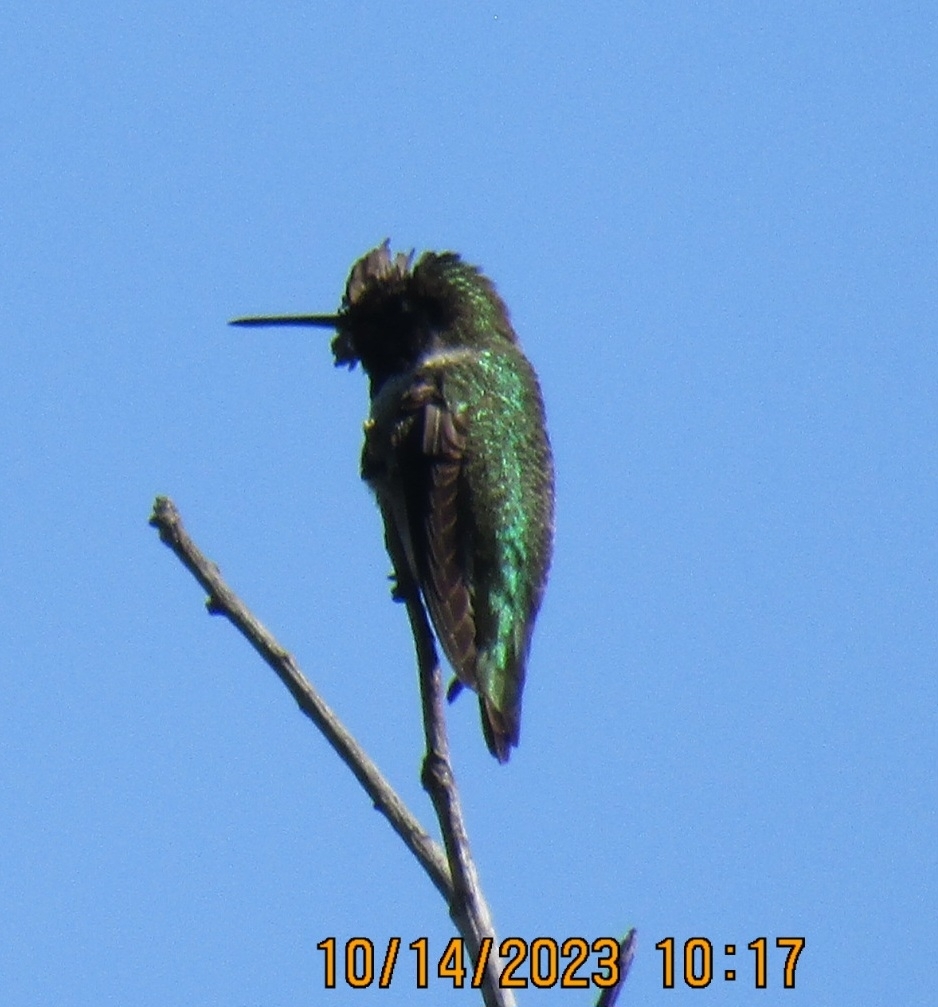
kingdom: Animalia
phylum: Chordata
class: Aves
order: Apodiformes
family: Trochilidae
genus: Calypte
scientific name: Calypte anna
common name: Anna's hummingbird
